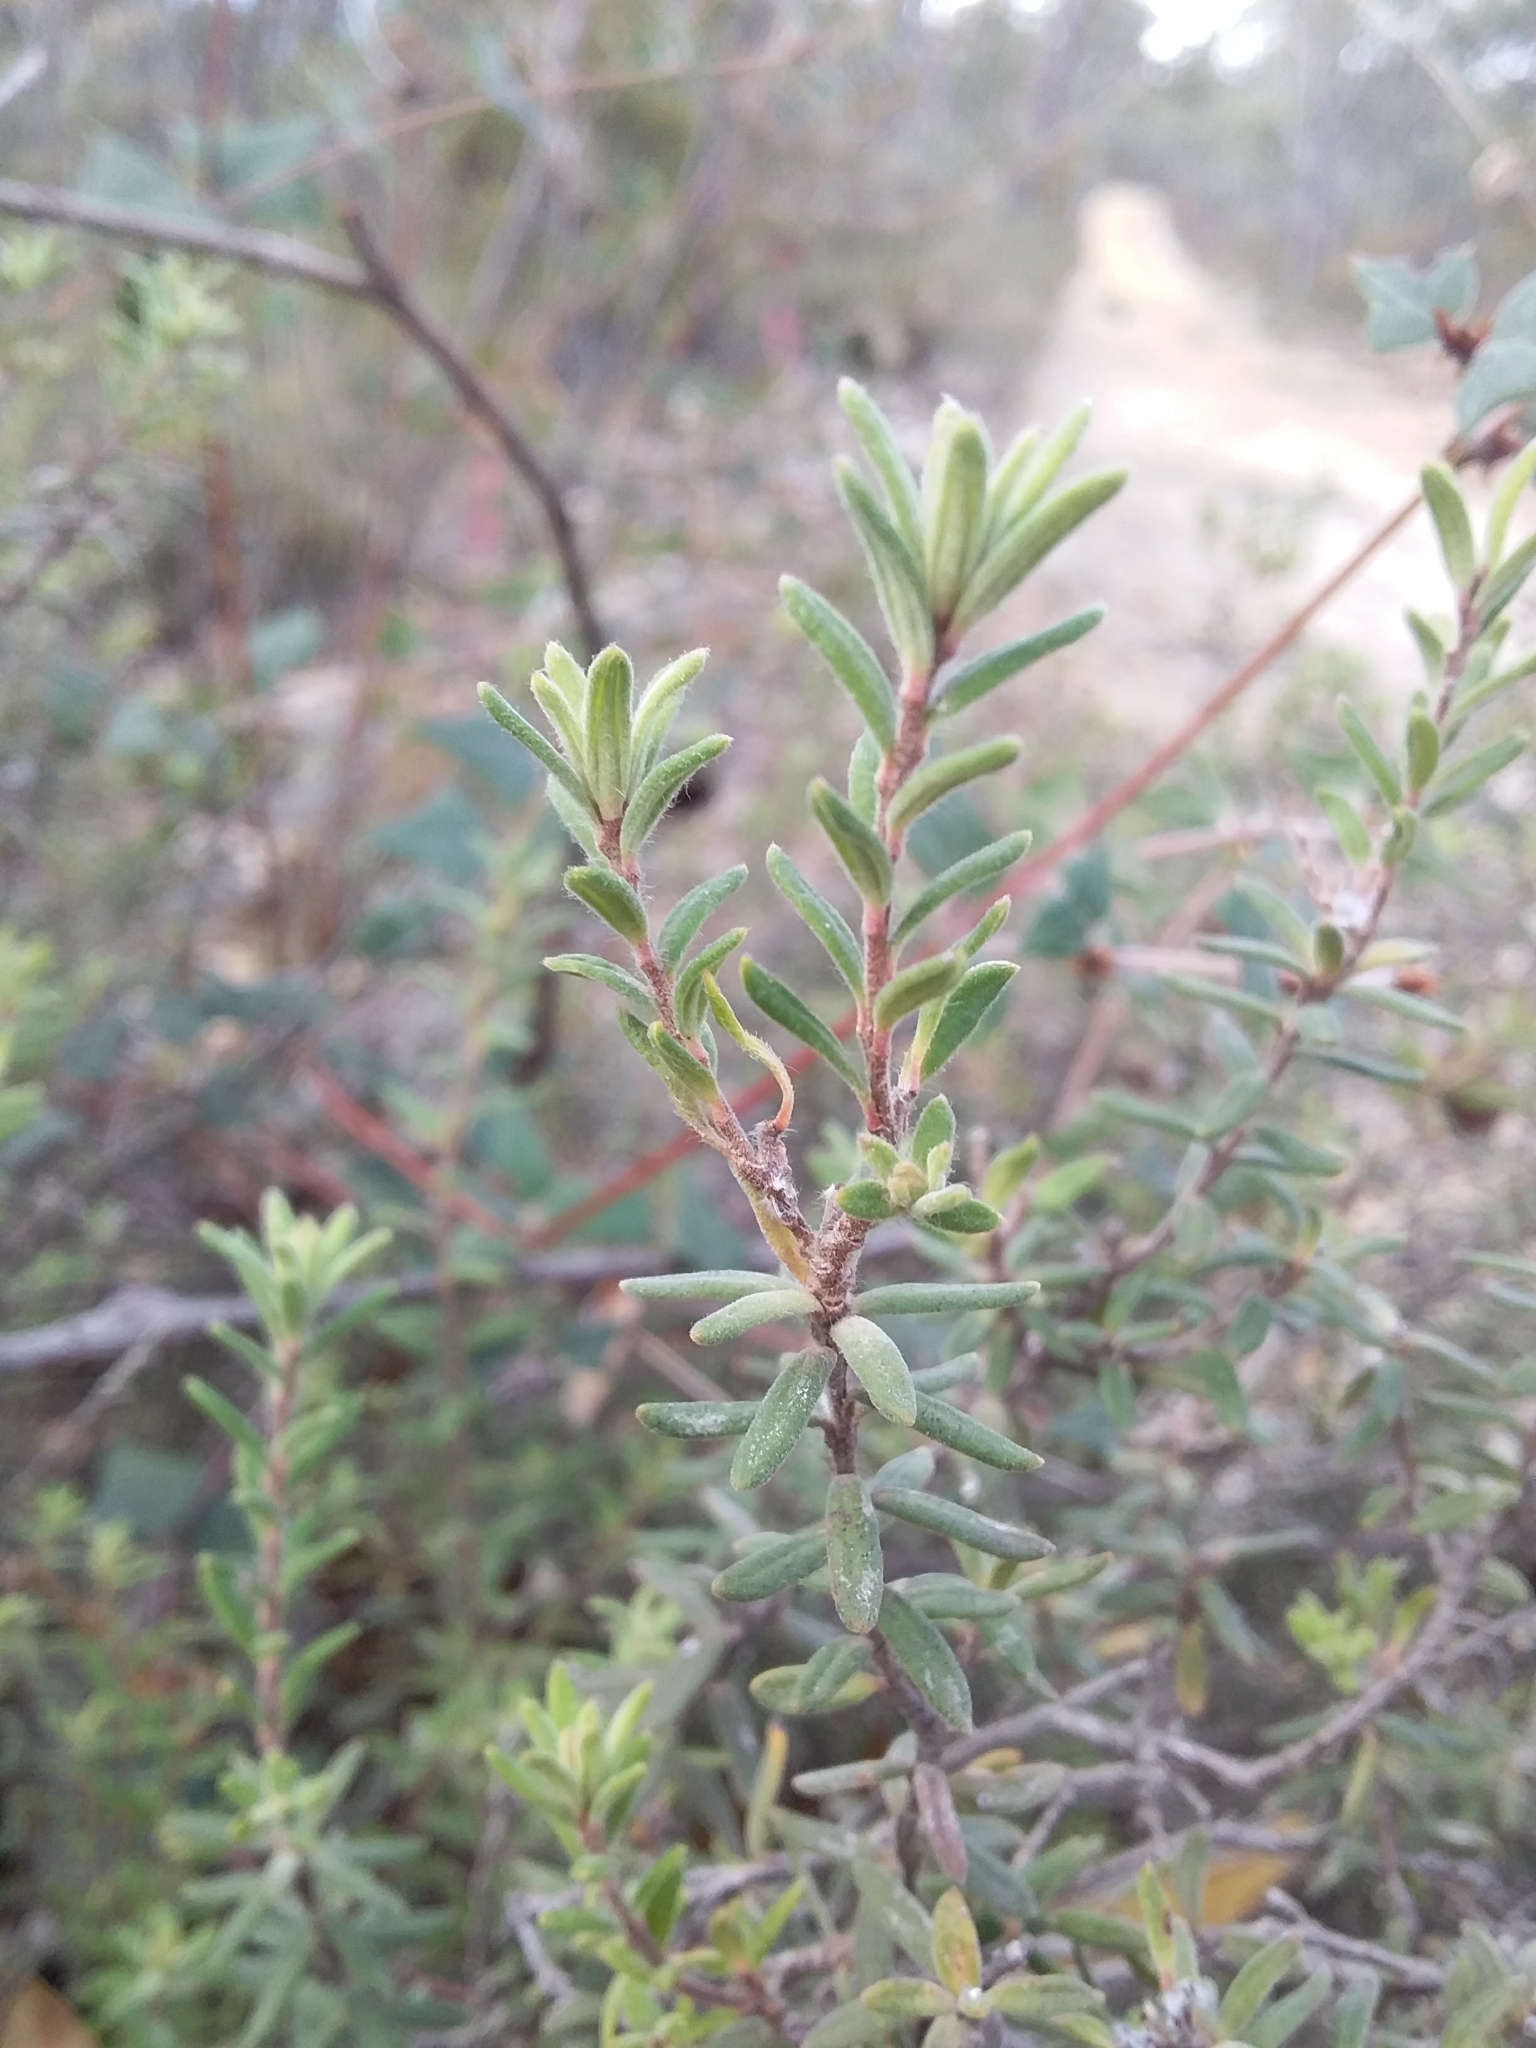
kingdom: Plantae
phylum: Tracheophyta
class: Magnoliopsida
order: Dilleniales
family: Dilleniaceae
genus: Hibbertia
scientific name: Hibbertia crinita
